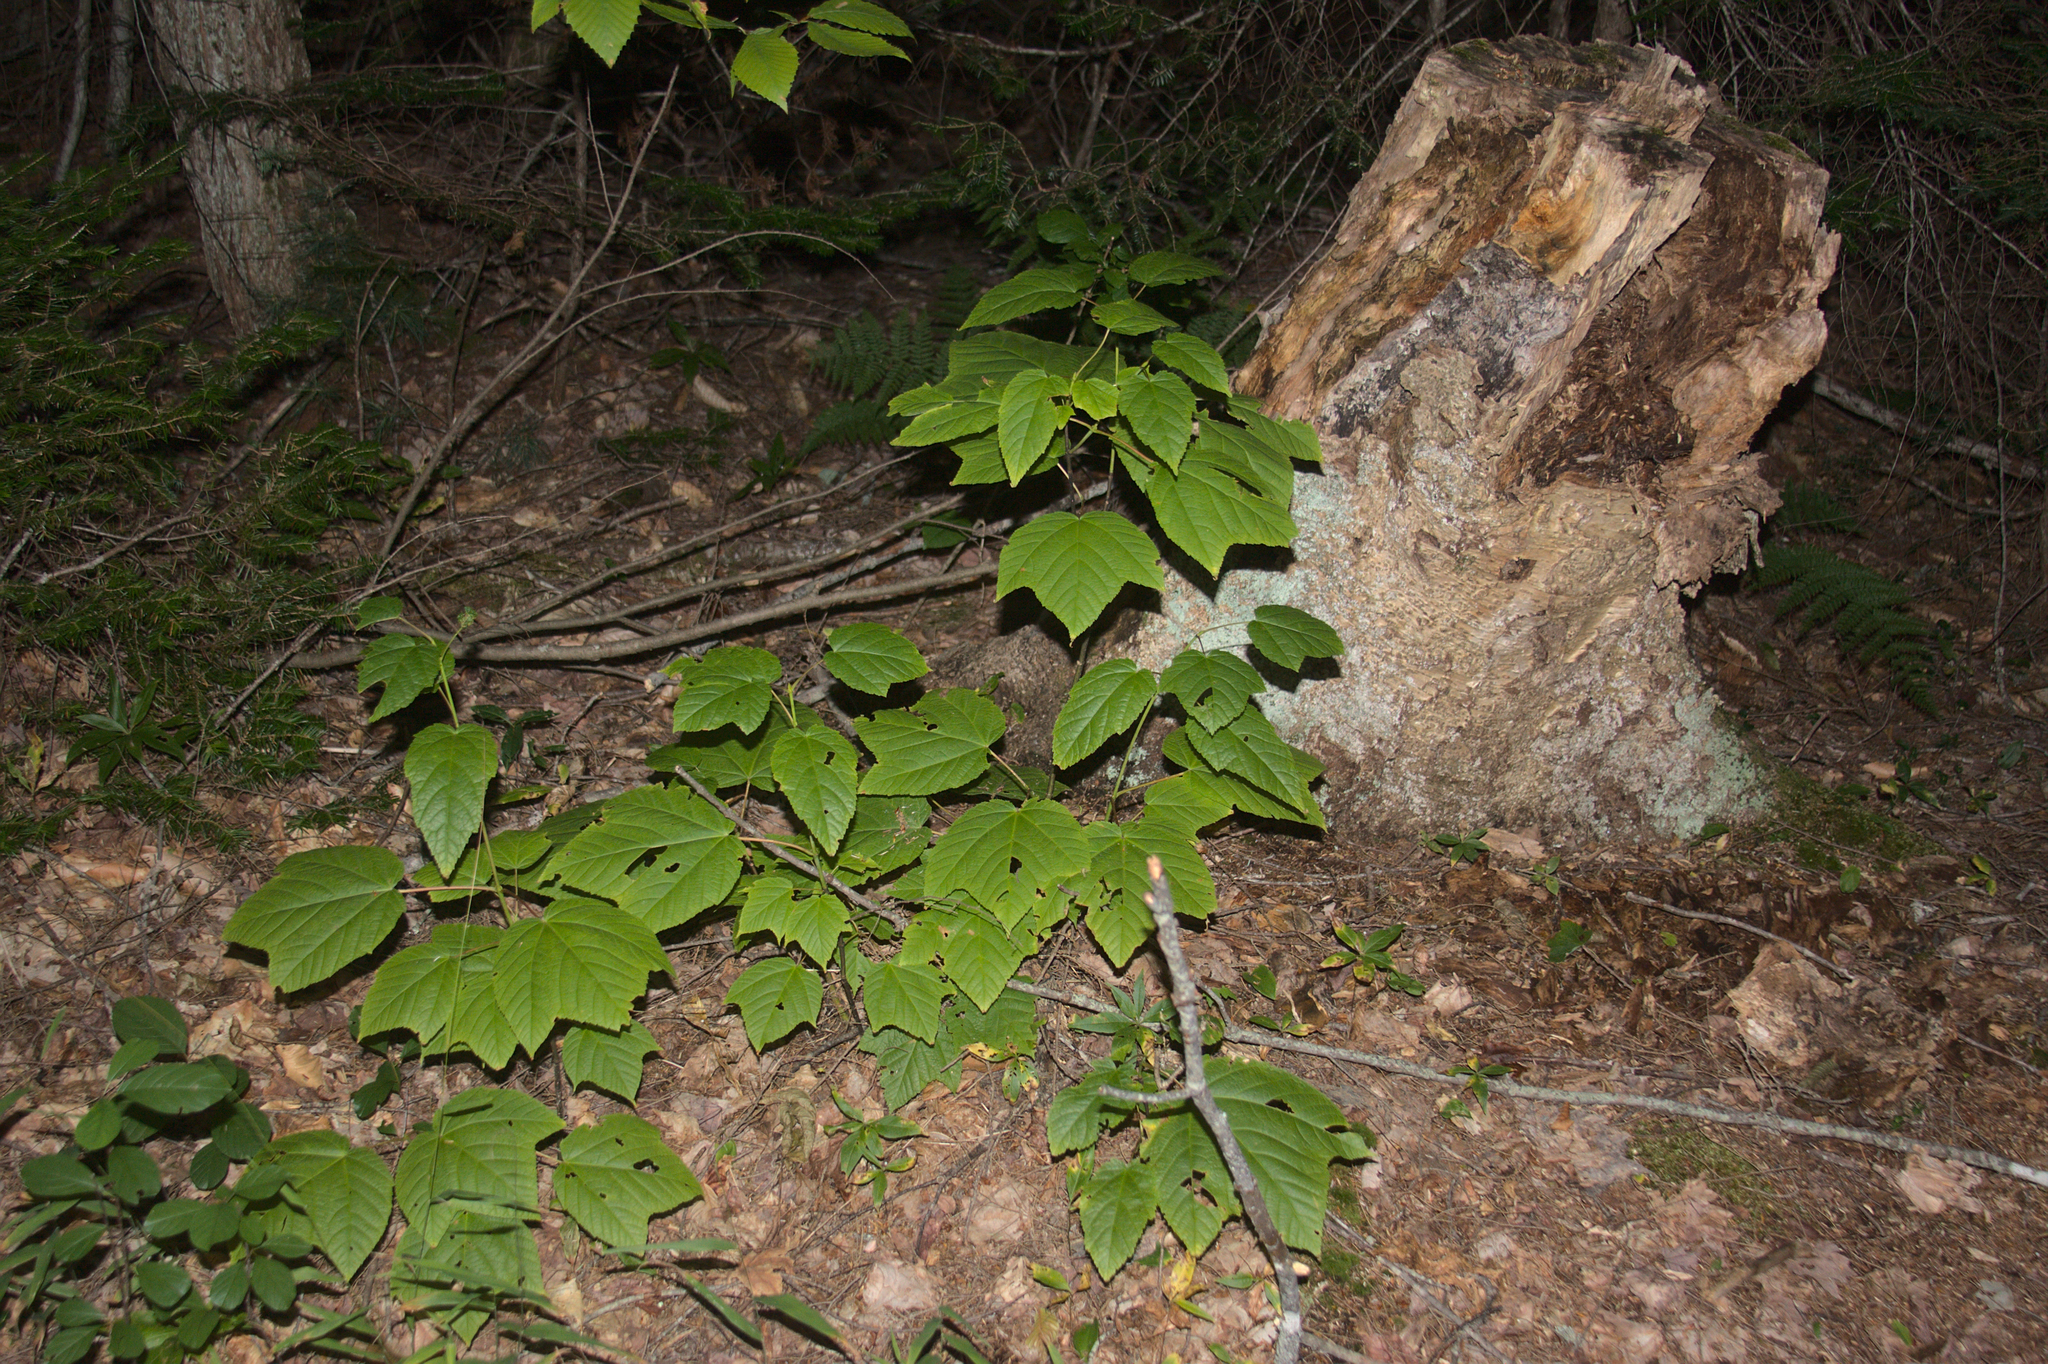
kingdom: Plantae
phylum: Tracheophyta
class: Magnoliopsida
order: Sapindales
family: Sapindaceae
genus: Acer
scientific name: Acer pensylvanicum
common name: Moosewood
